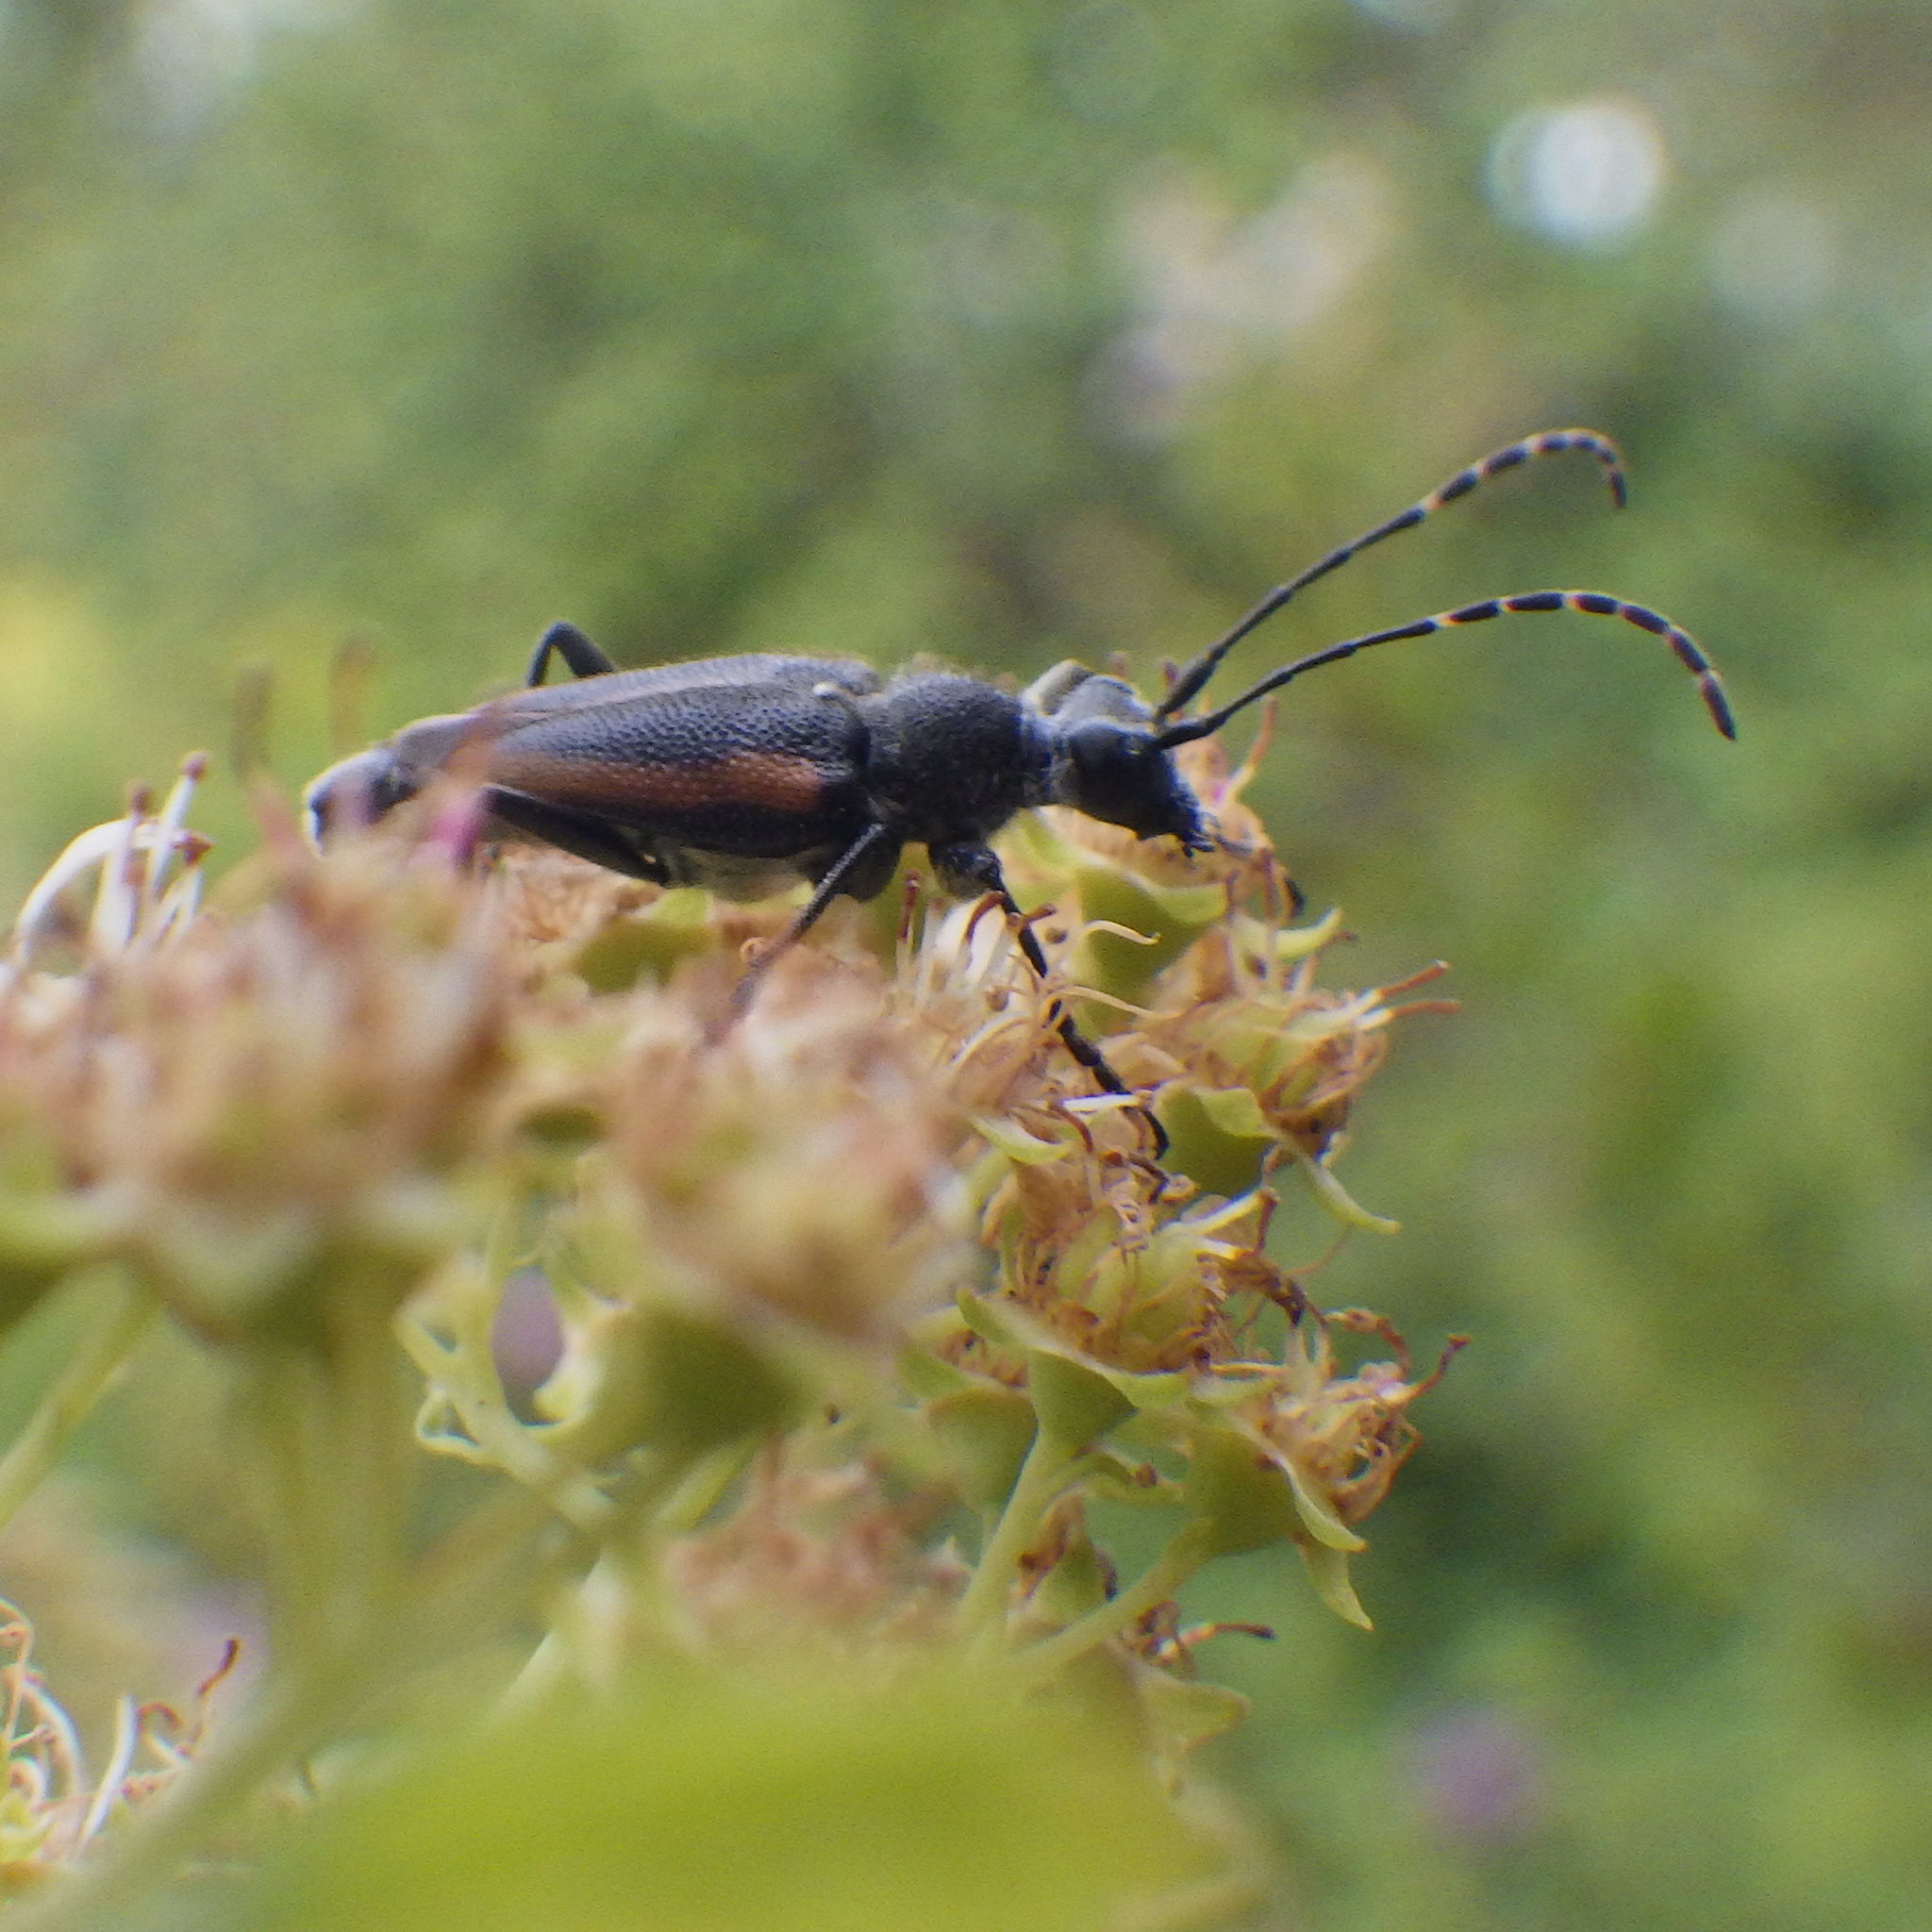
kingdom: Animalia
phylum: Arthropoda
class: Insecta
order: Coleoptera
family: Cerambycidae
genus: Brachyleptura
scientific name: Brachyleptura vagans
